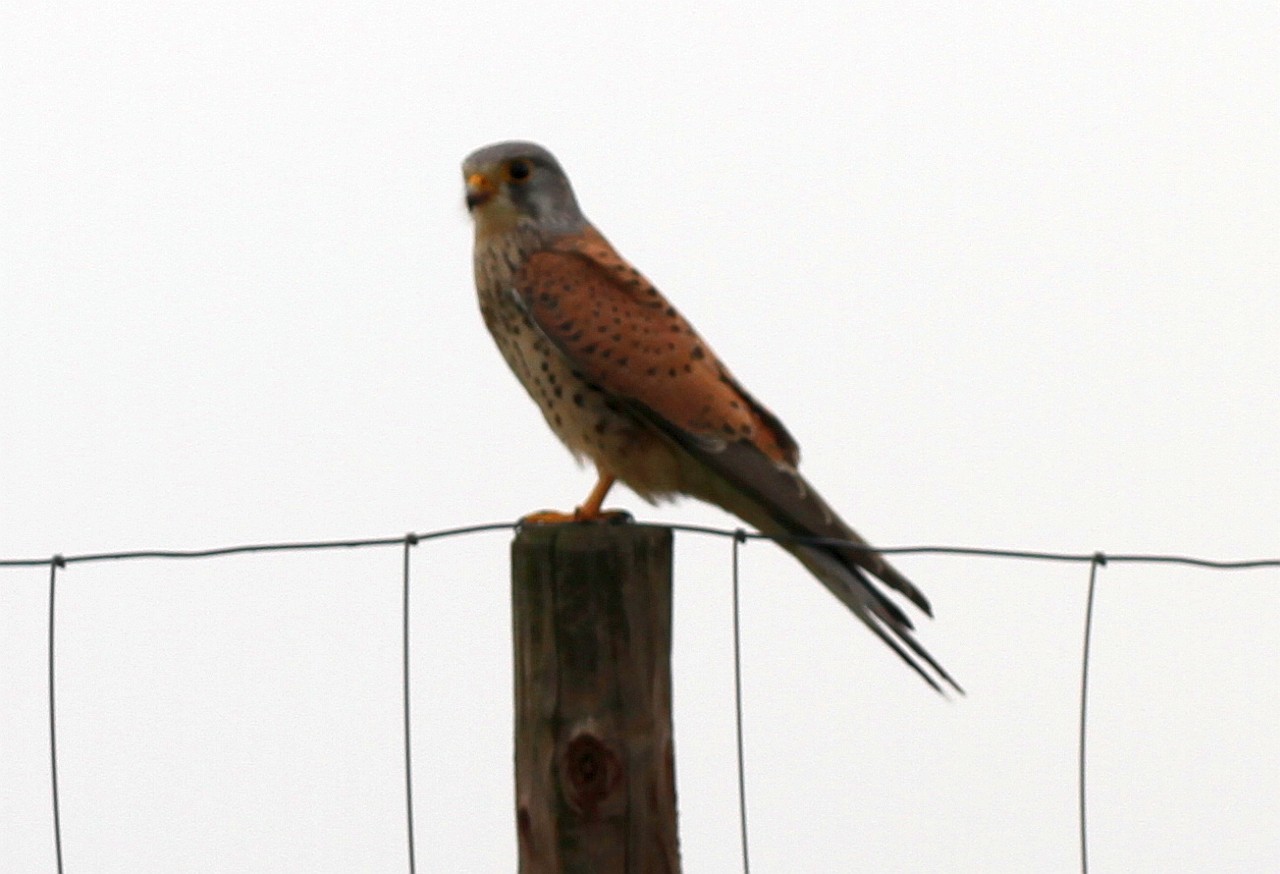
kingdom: Animalia
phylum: Chordata
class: Aves
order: Falconiformes
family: Falconidae
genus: Falco
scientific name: Falco tinnunculus
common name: Common kestrel
